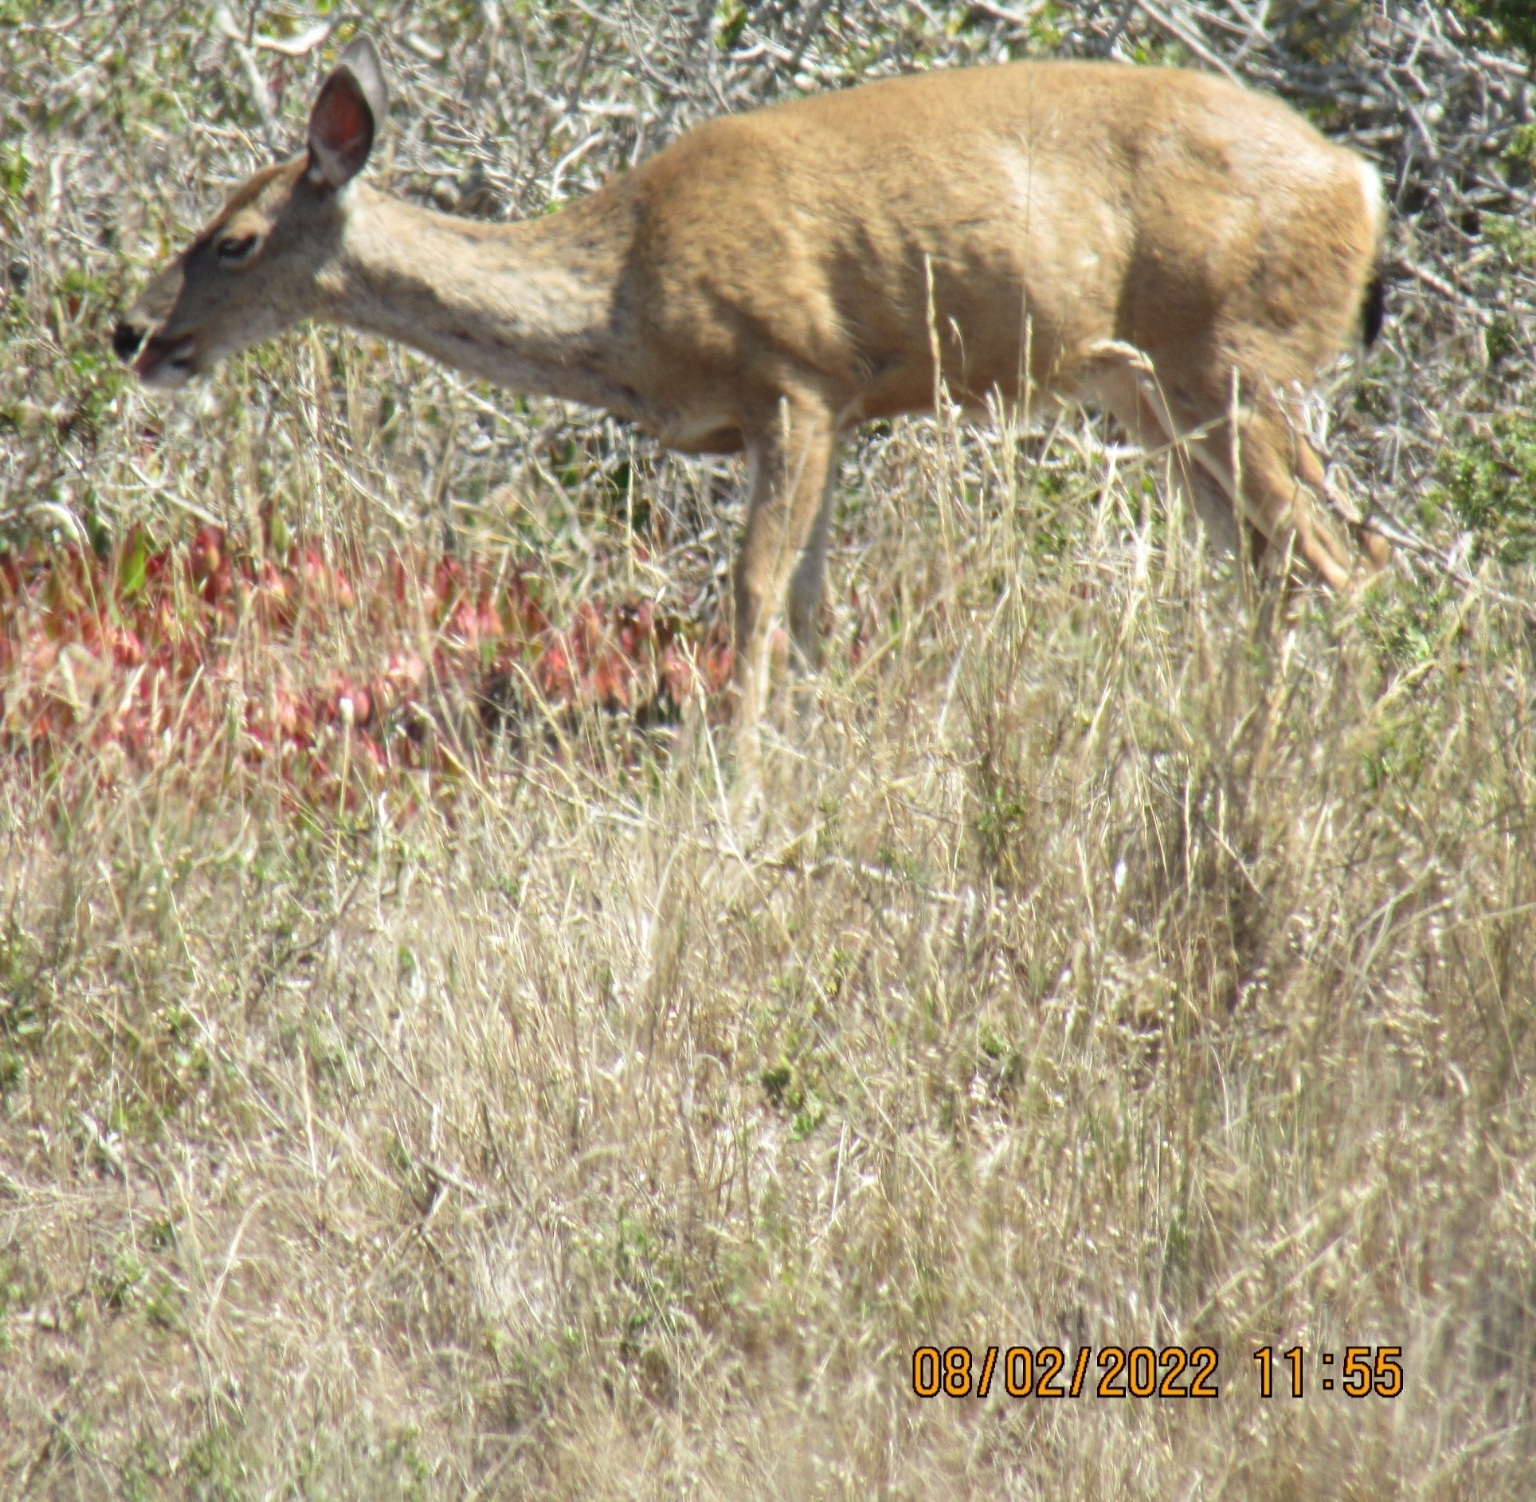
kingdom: Animalia
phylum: Chordata
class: Mammalia
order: Artiodactyla
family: Cervidae
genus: Odocoileus
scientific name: Odocoileus hemionus
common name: Mule deer
